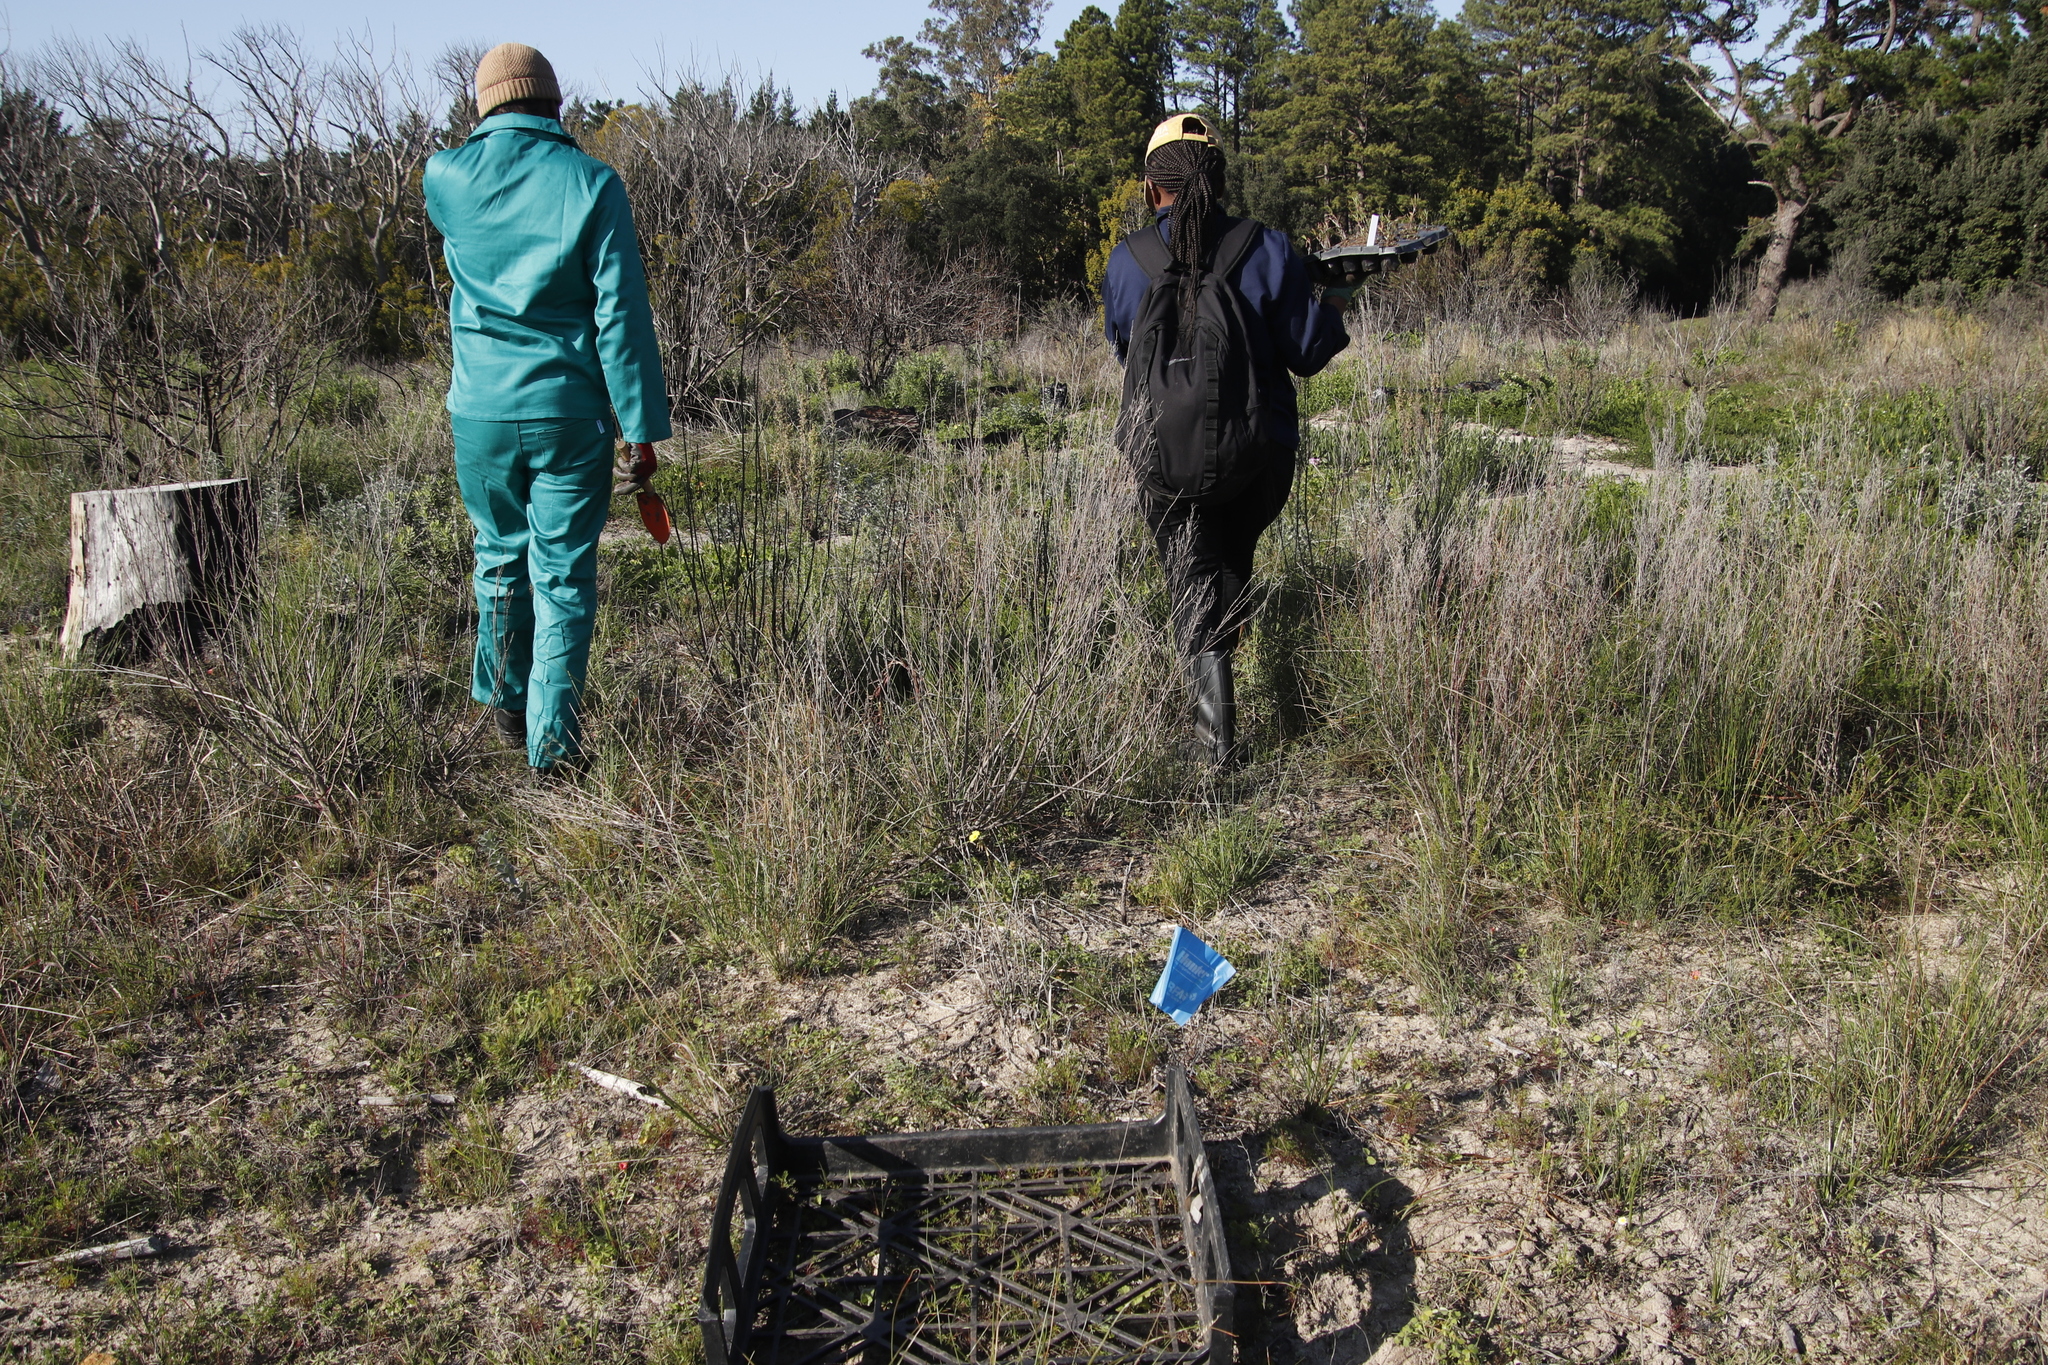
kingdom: Plantae
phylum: Tracheophyta
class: Magnoliopsida
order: Oxalidales
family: Oxalidaceae
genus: Oxalis
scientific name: Oxalis pes-caprae
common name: Bermuda-buttercup
